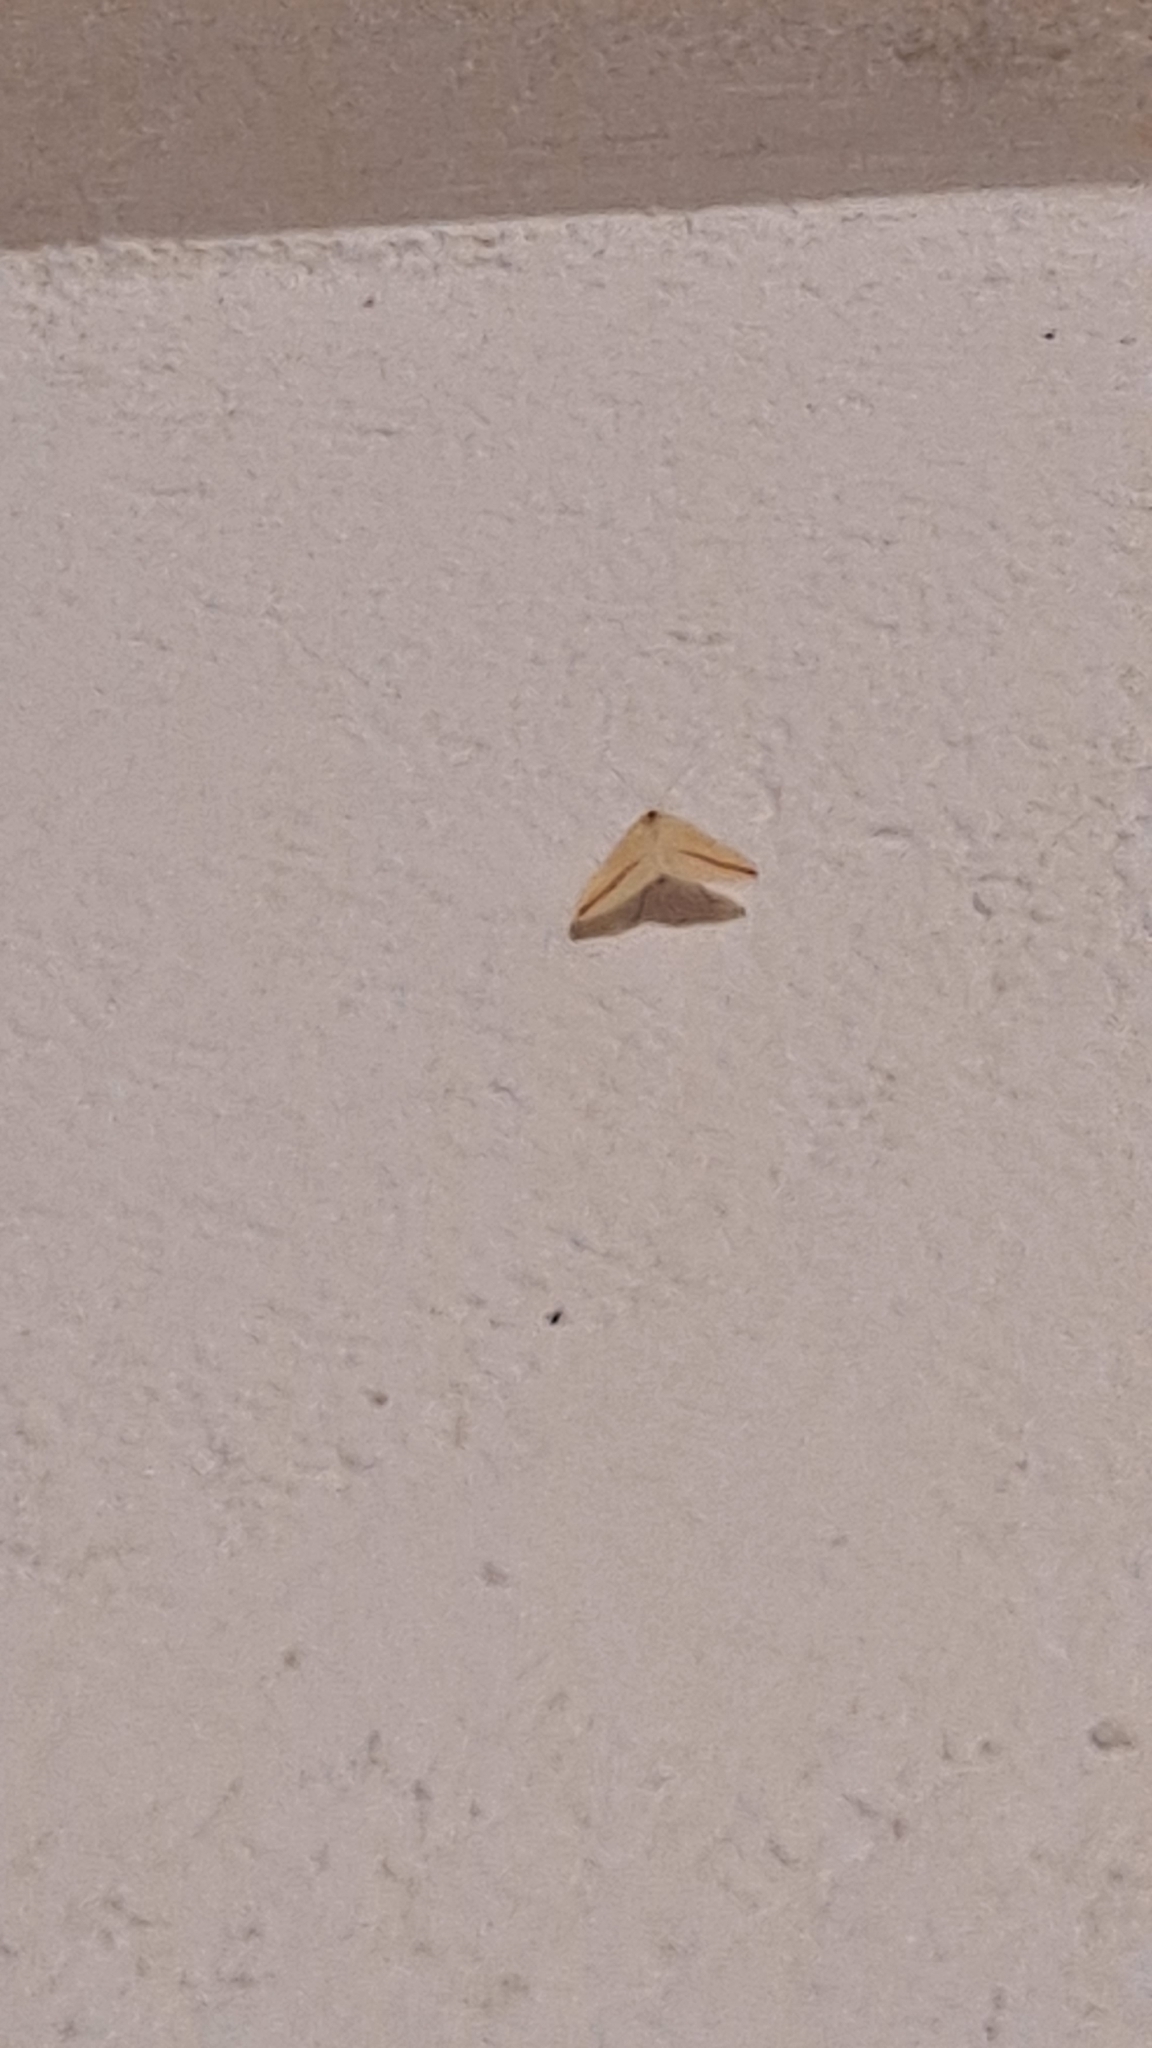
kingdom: Animalia
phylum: Arthropoda
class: Insecta
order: Lepidoptera
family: Geometridae
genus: Rhodometra
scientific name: Rhodometra sacraria
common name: Vestal
